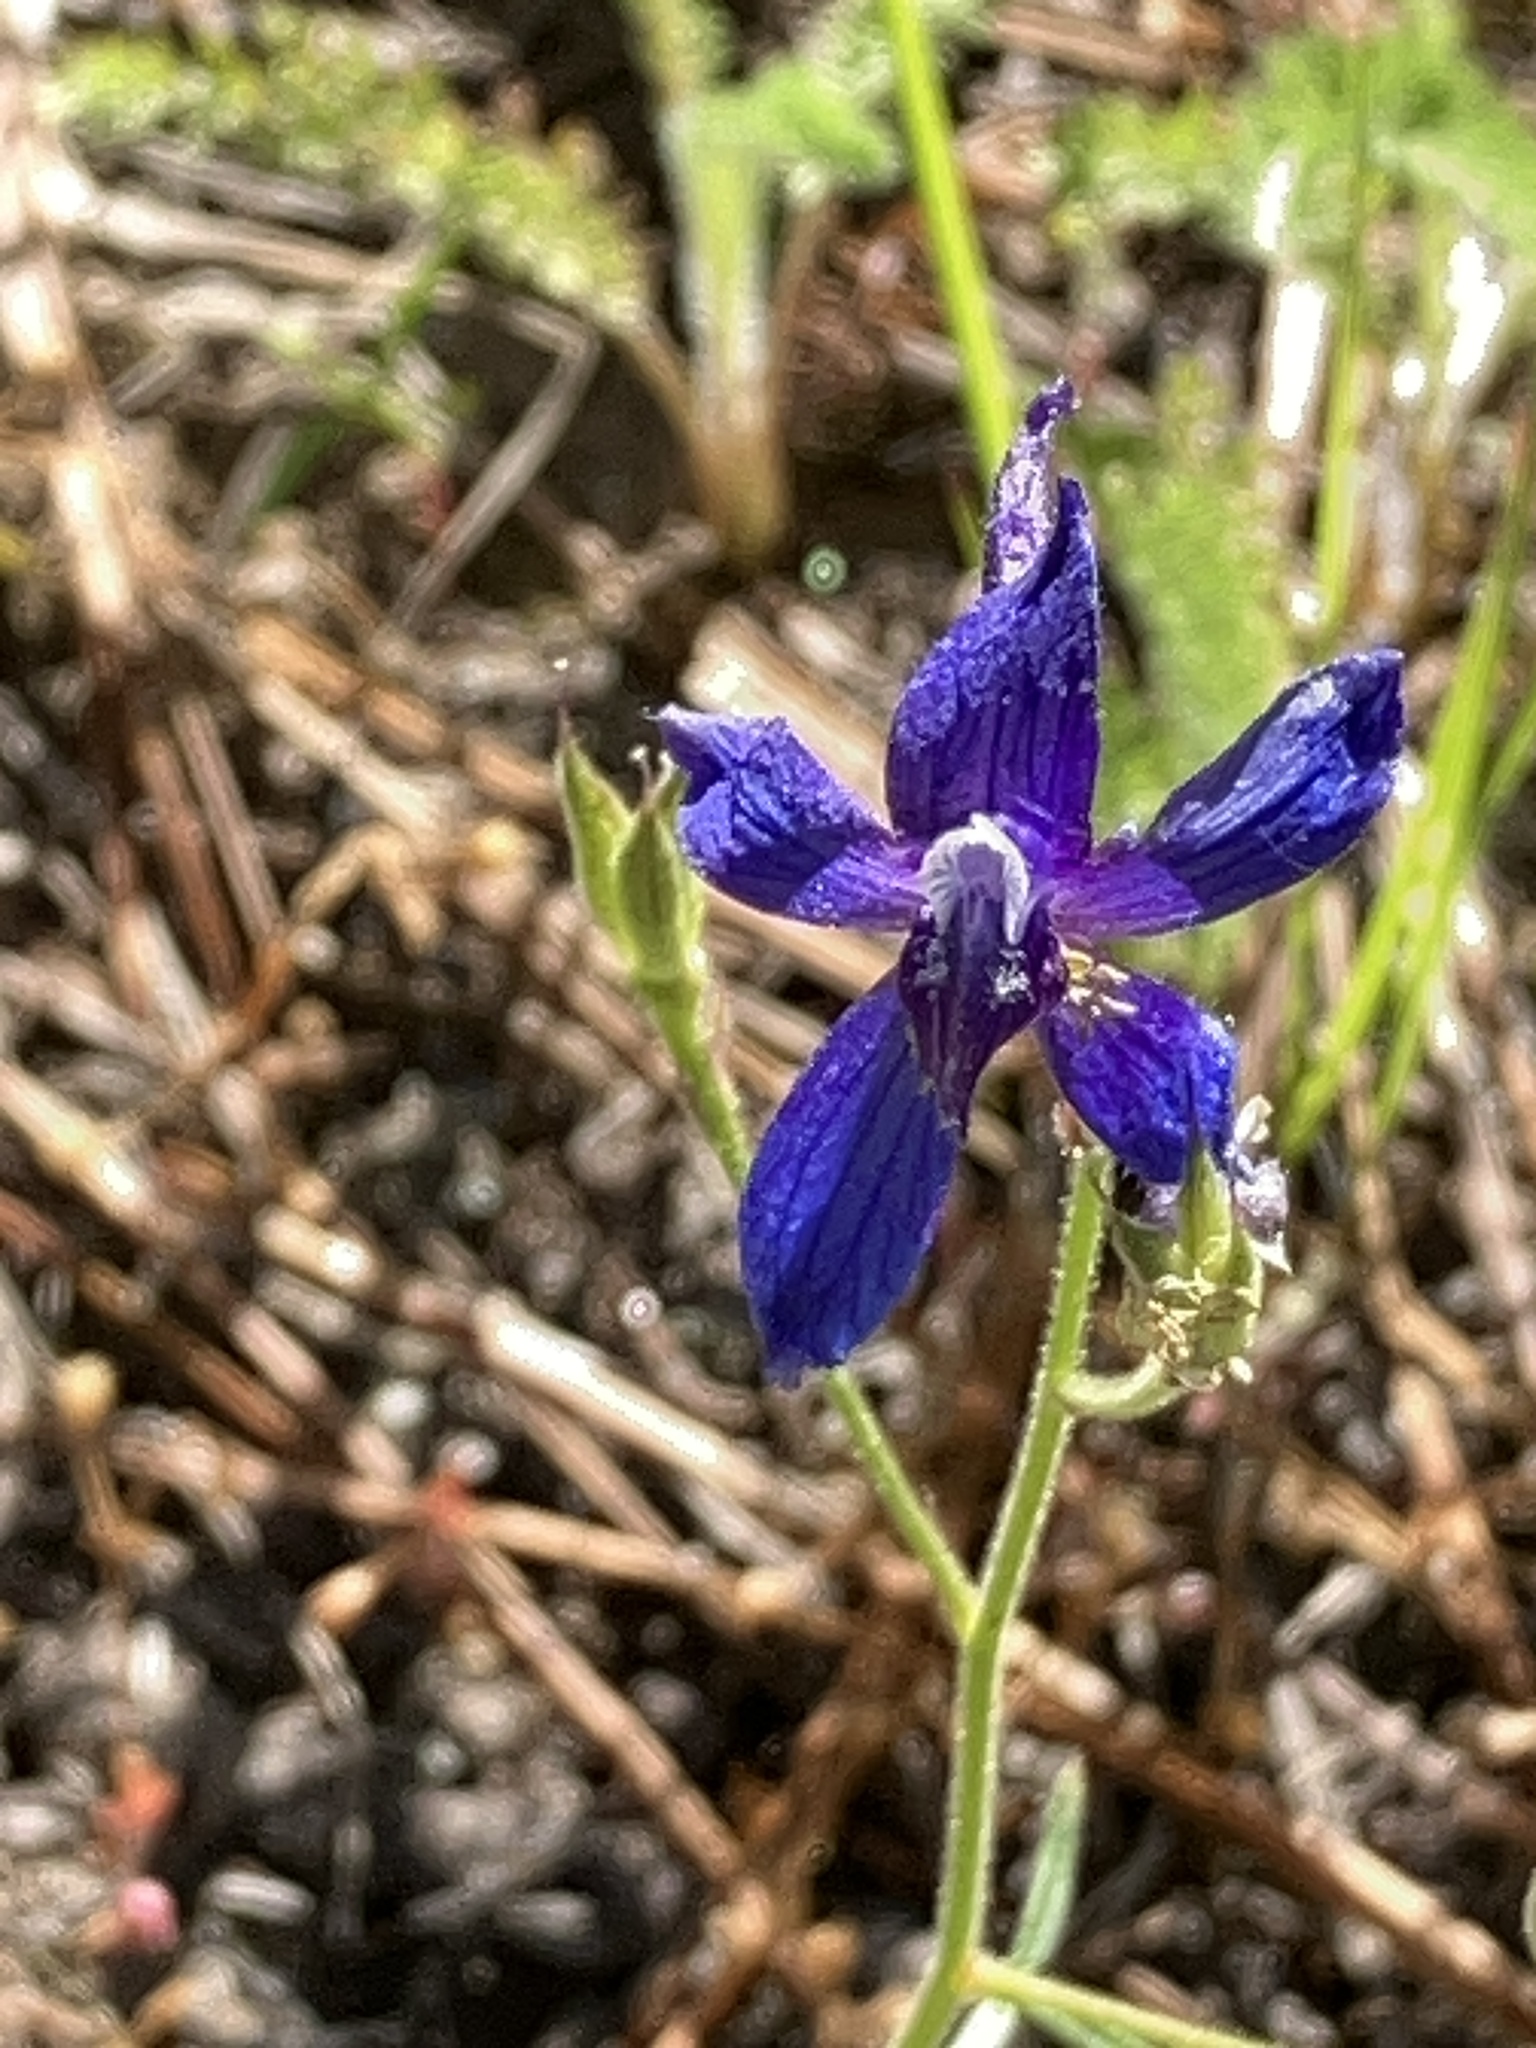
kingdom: Plantae
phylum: Tracheophyta
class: Magnoliopsida
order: Ranunculales
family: Ranunculaceae
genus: Delphinium
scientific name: Delphinium nuttallianum
